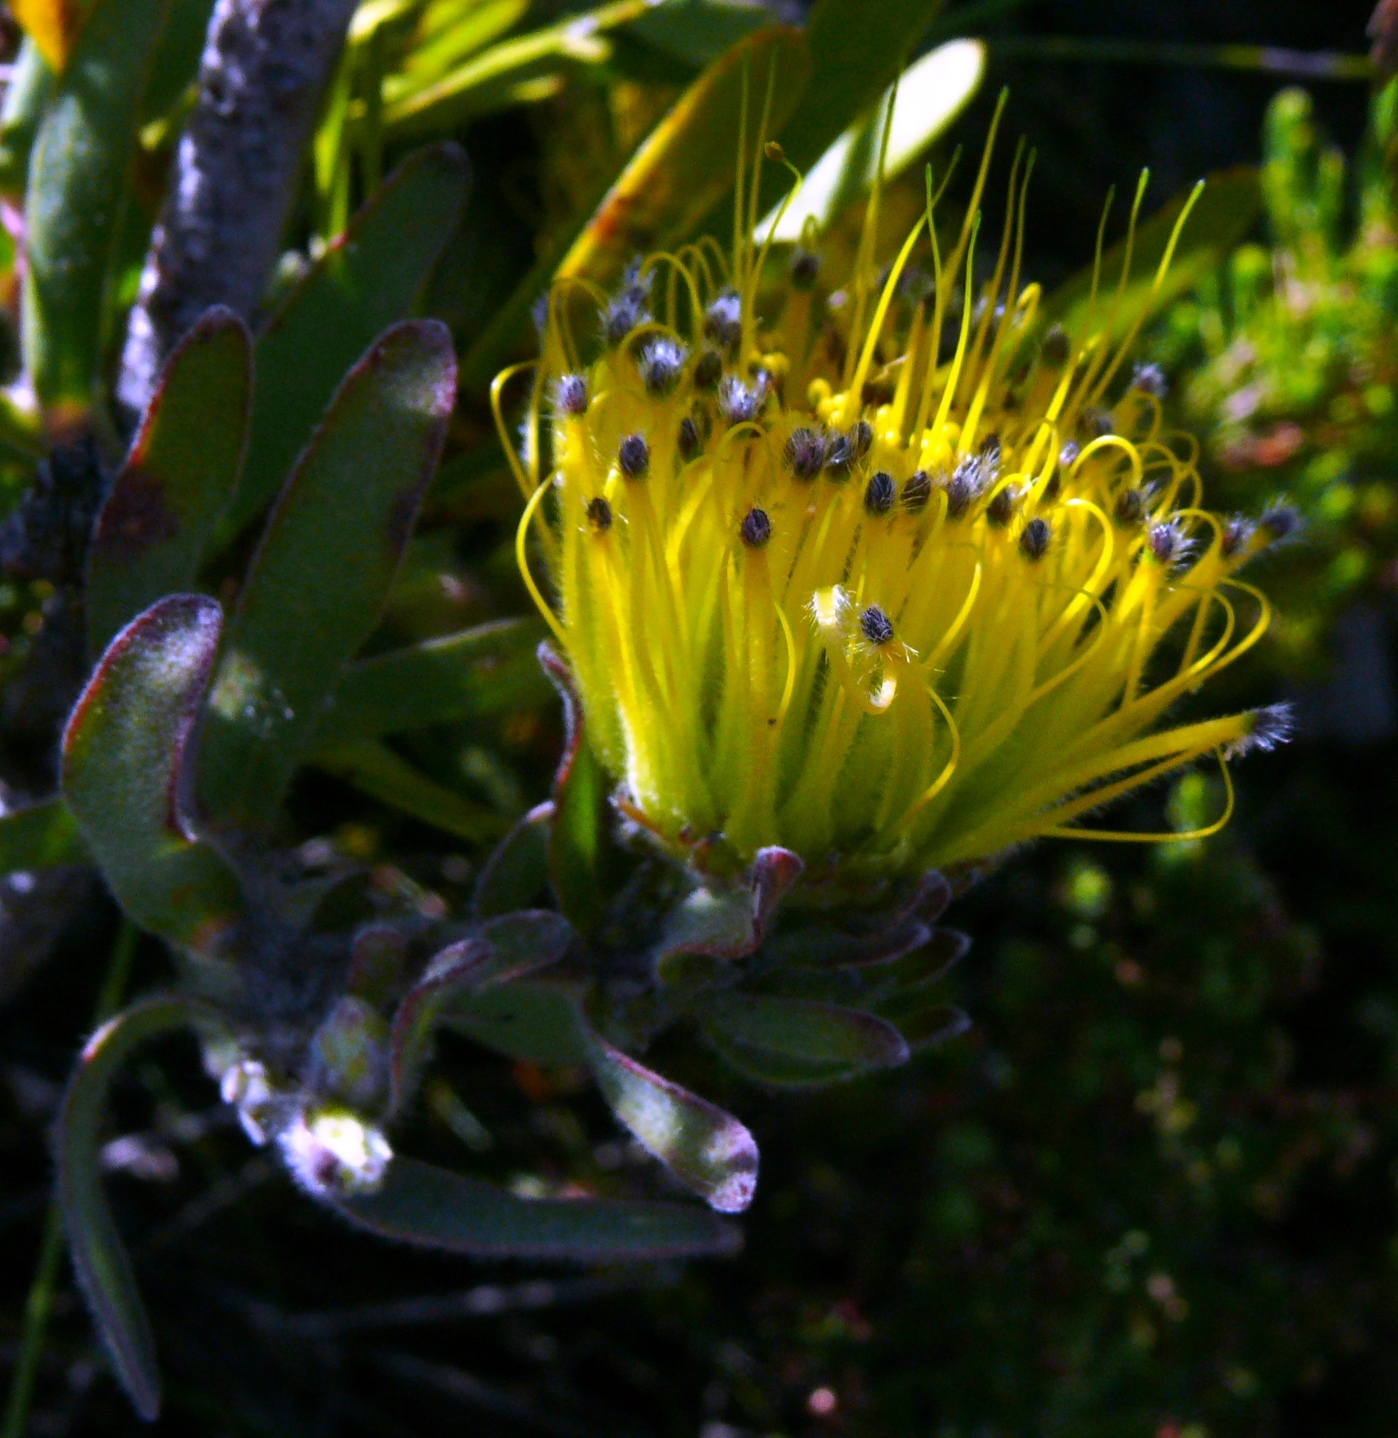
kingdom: Plantae
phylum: Tracheophyta
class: Magnoliopsida
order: Proteales
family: Proteaceae
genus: Leucospermum
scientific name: Leucospermum gracile
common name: Hermanus pincushion
